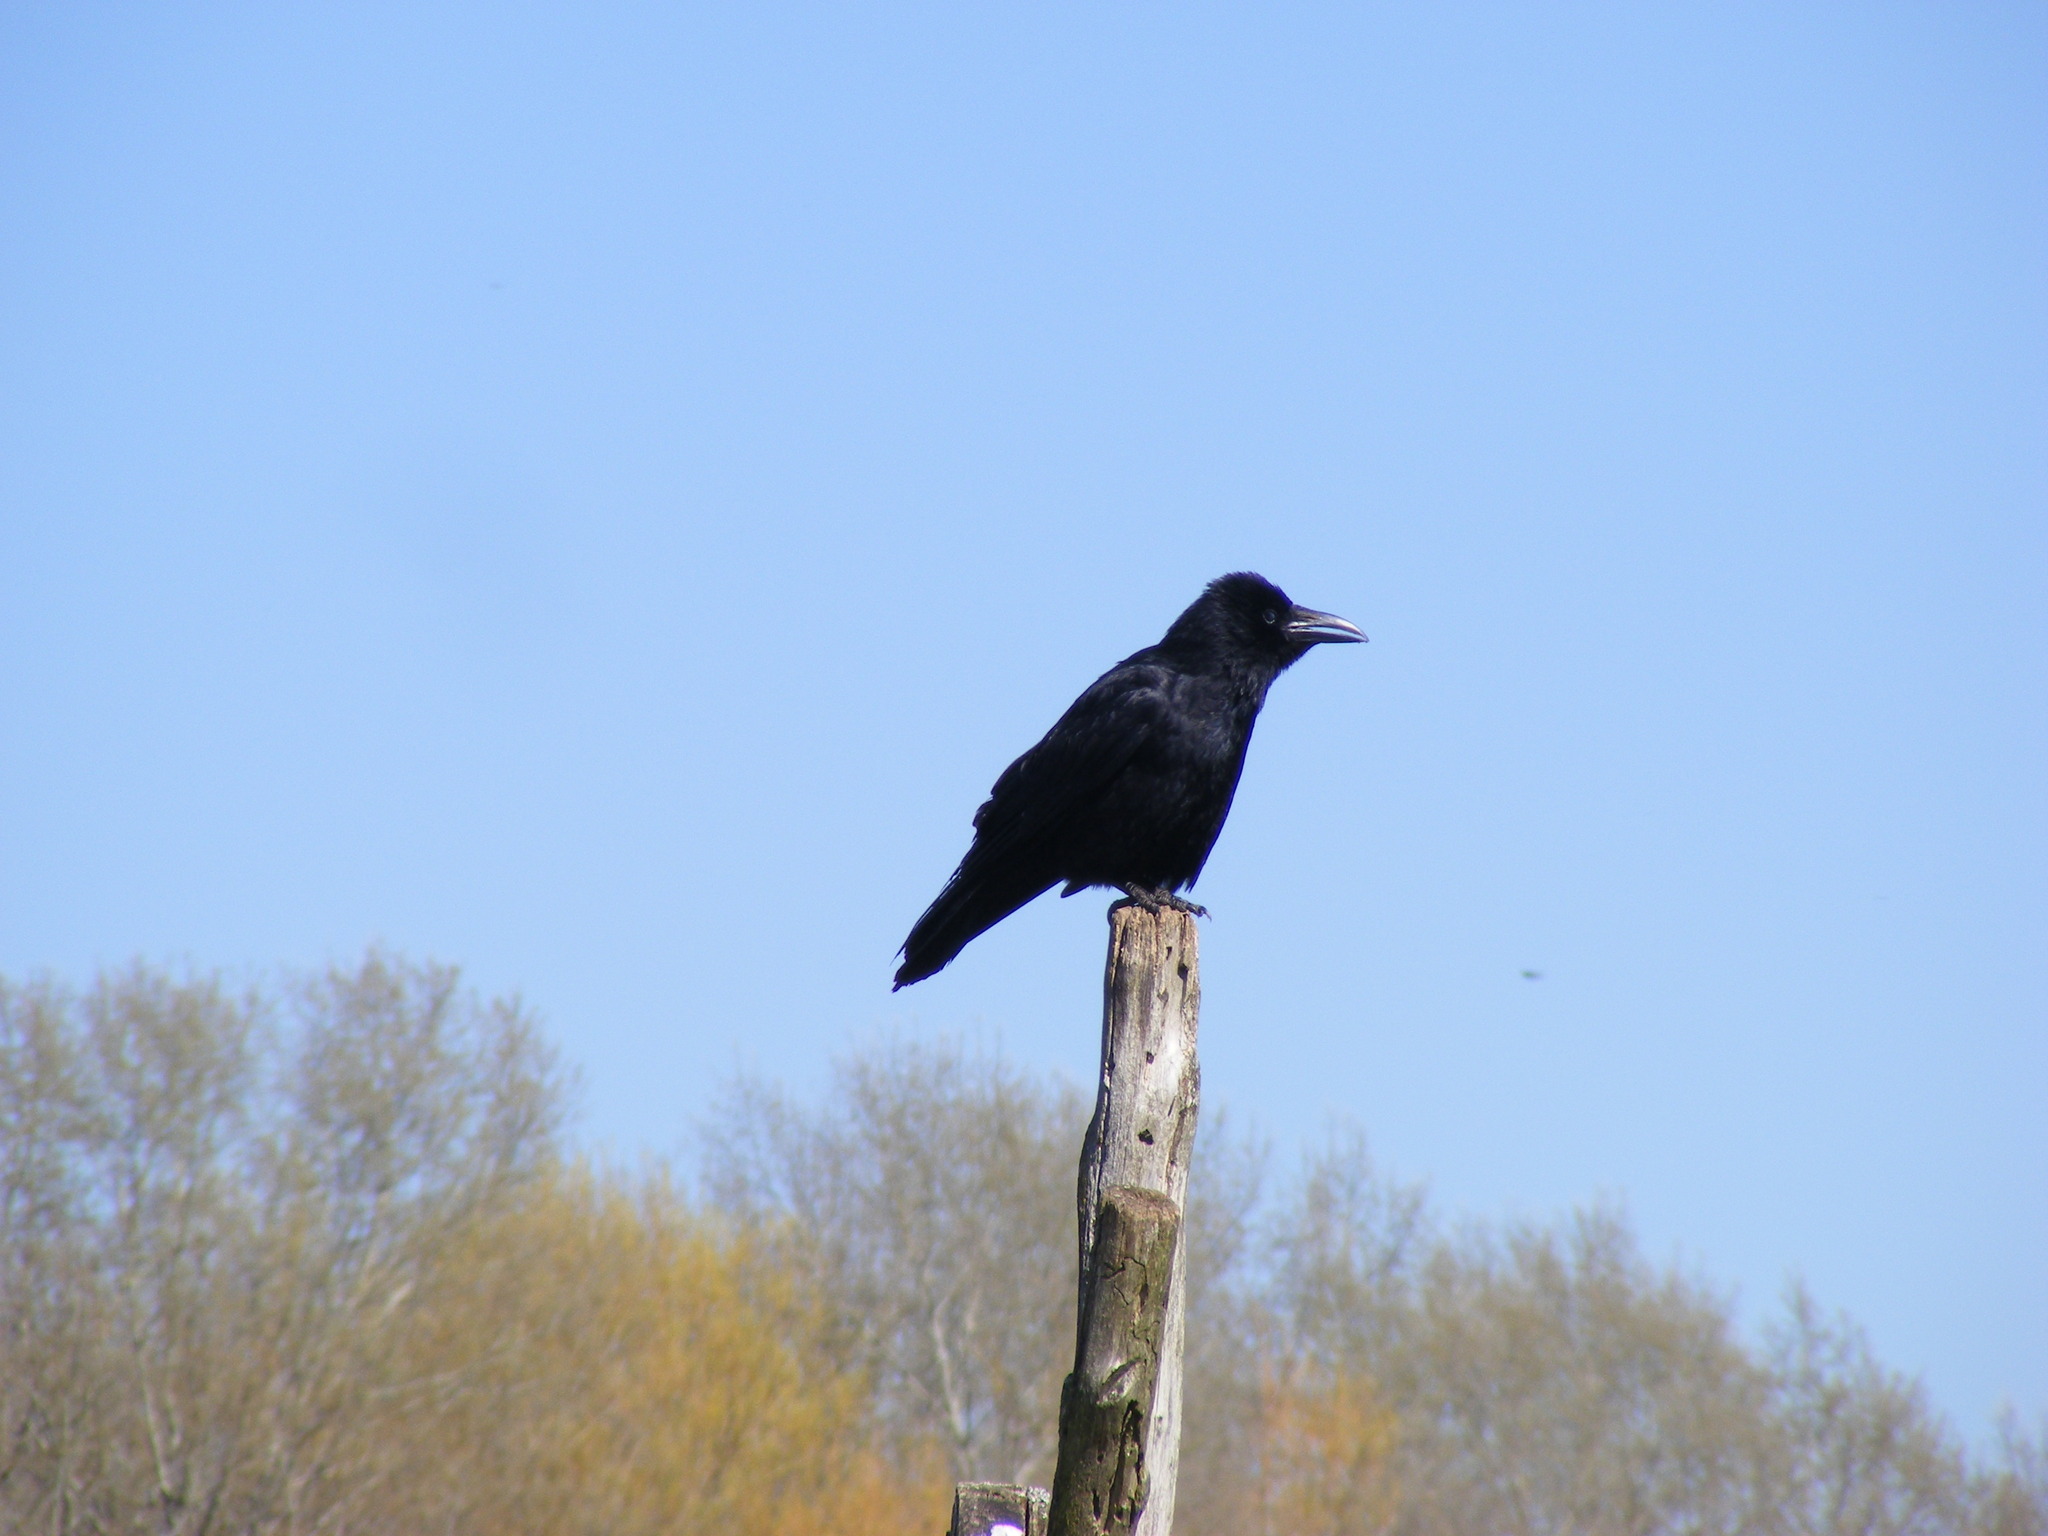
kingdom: Animalia
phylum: Chordata
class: Aves
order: Passeriformes
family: Corvidae
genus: Corvus
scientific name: Corvus corone
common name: Carrion crow
